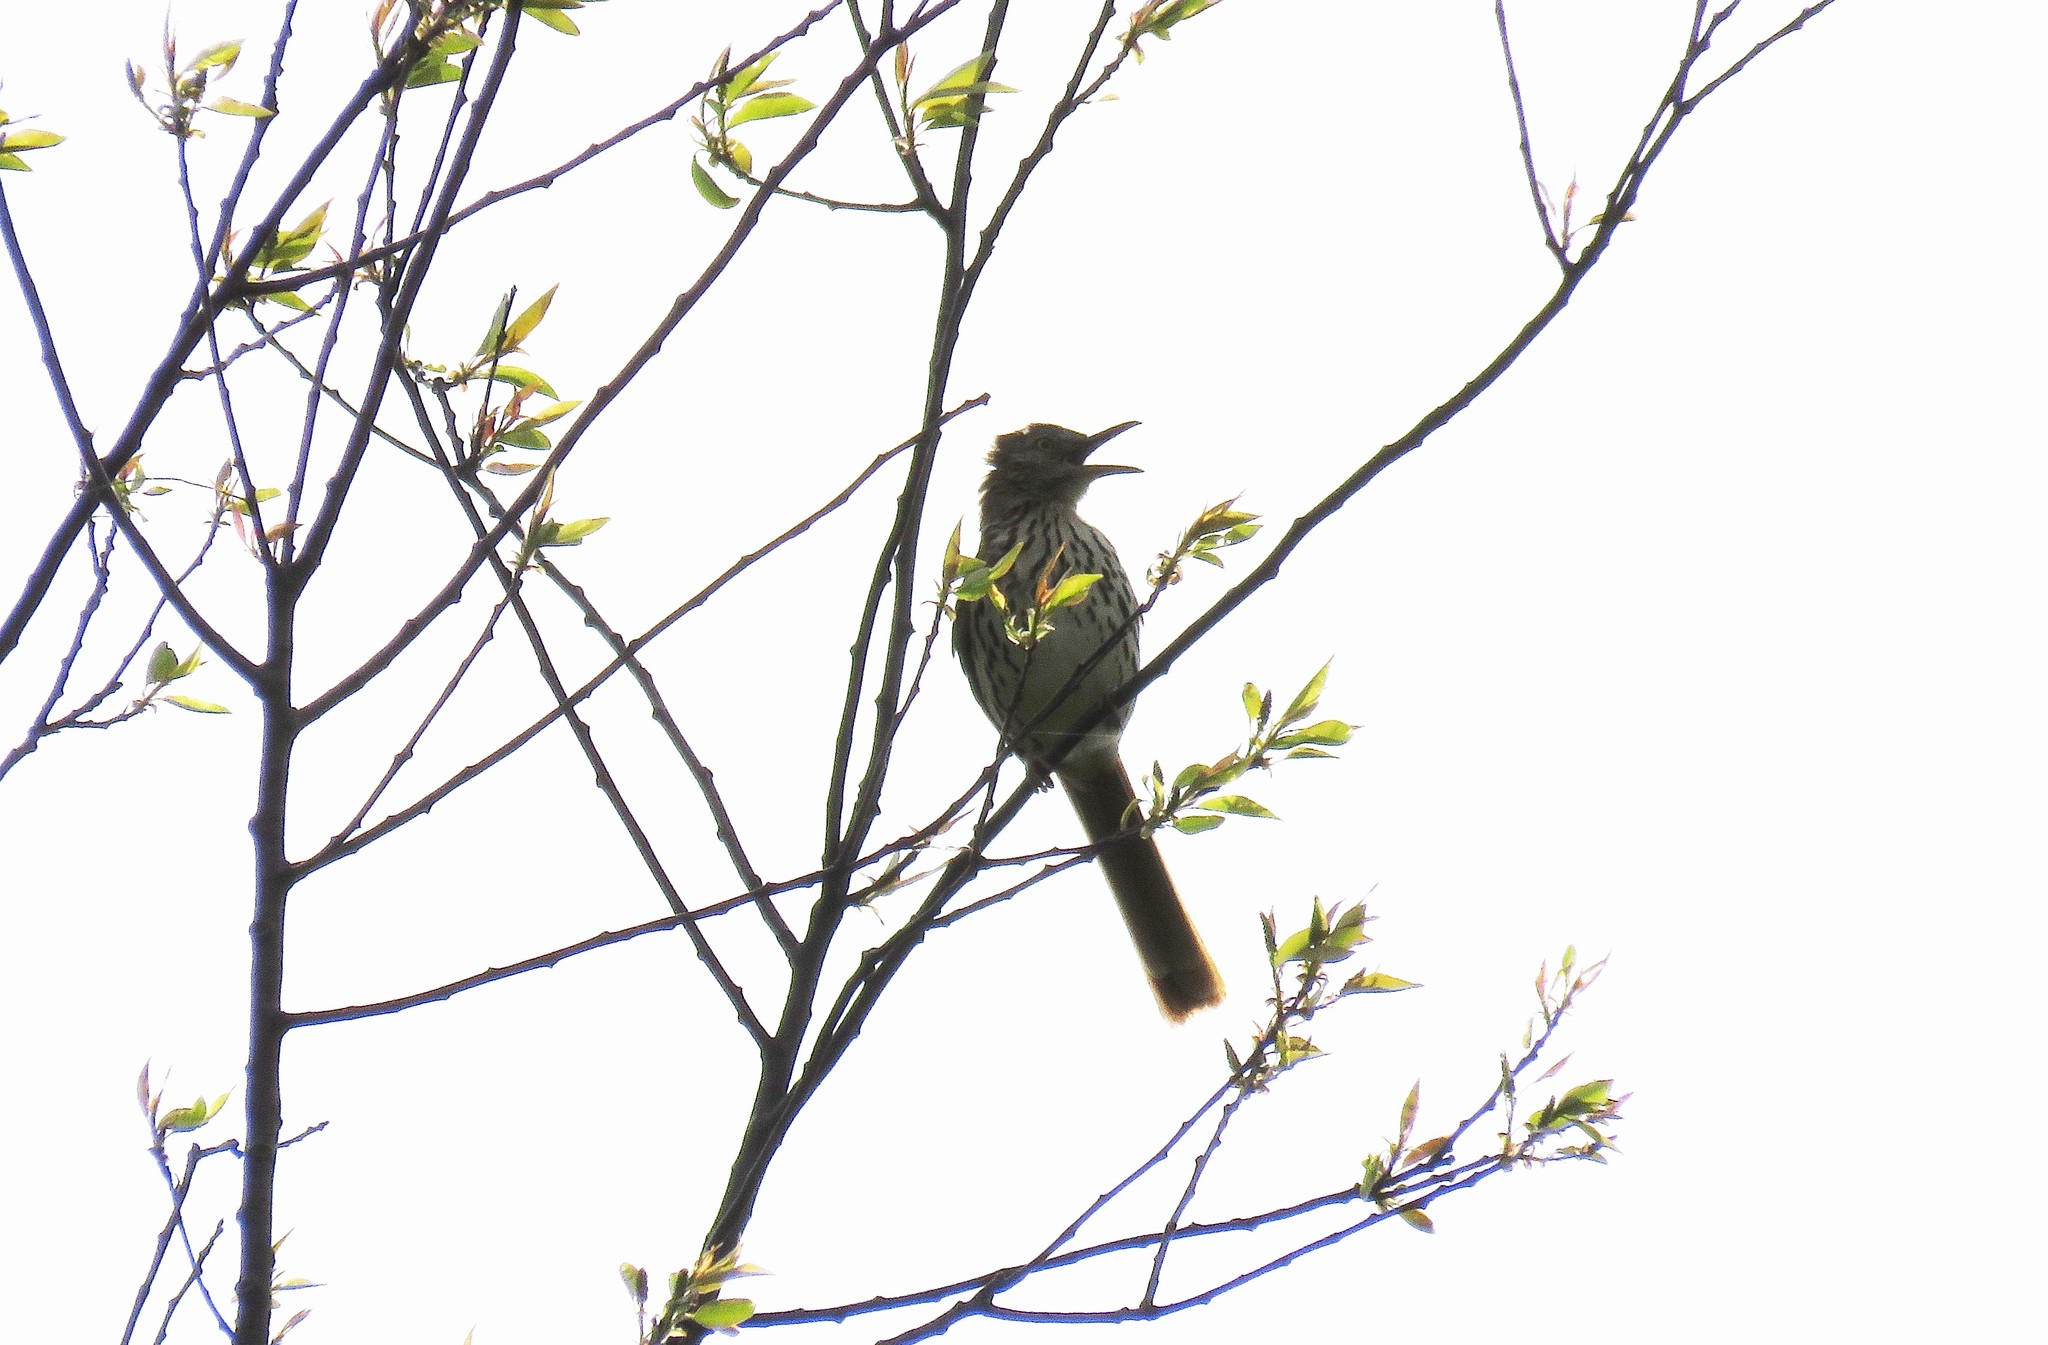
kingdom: Animalia
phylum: Chordata
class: Aves
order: Passeriformes
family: Mimidae
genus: Toxostoma
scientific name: Toxostoma rufum
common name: Brown thrasher
